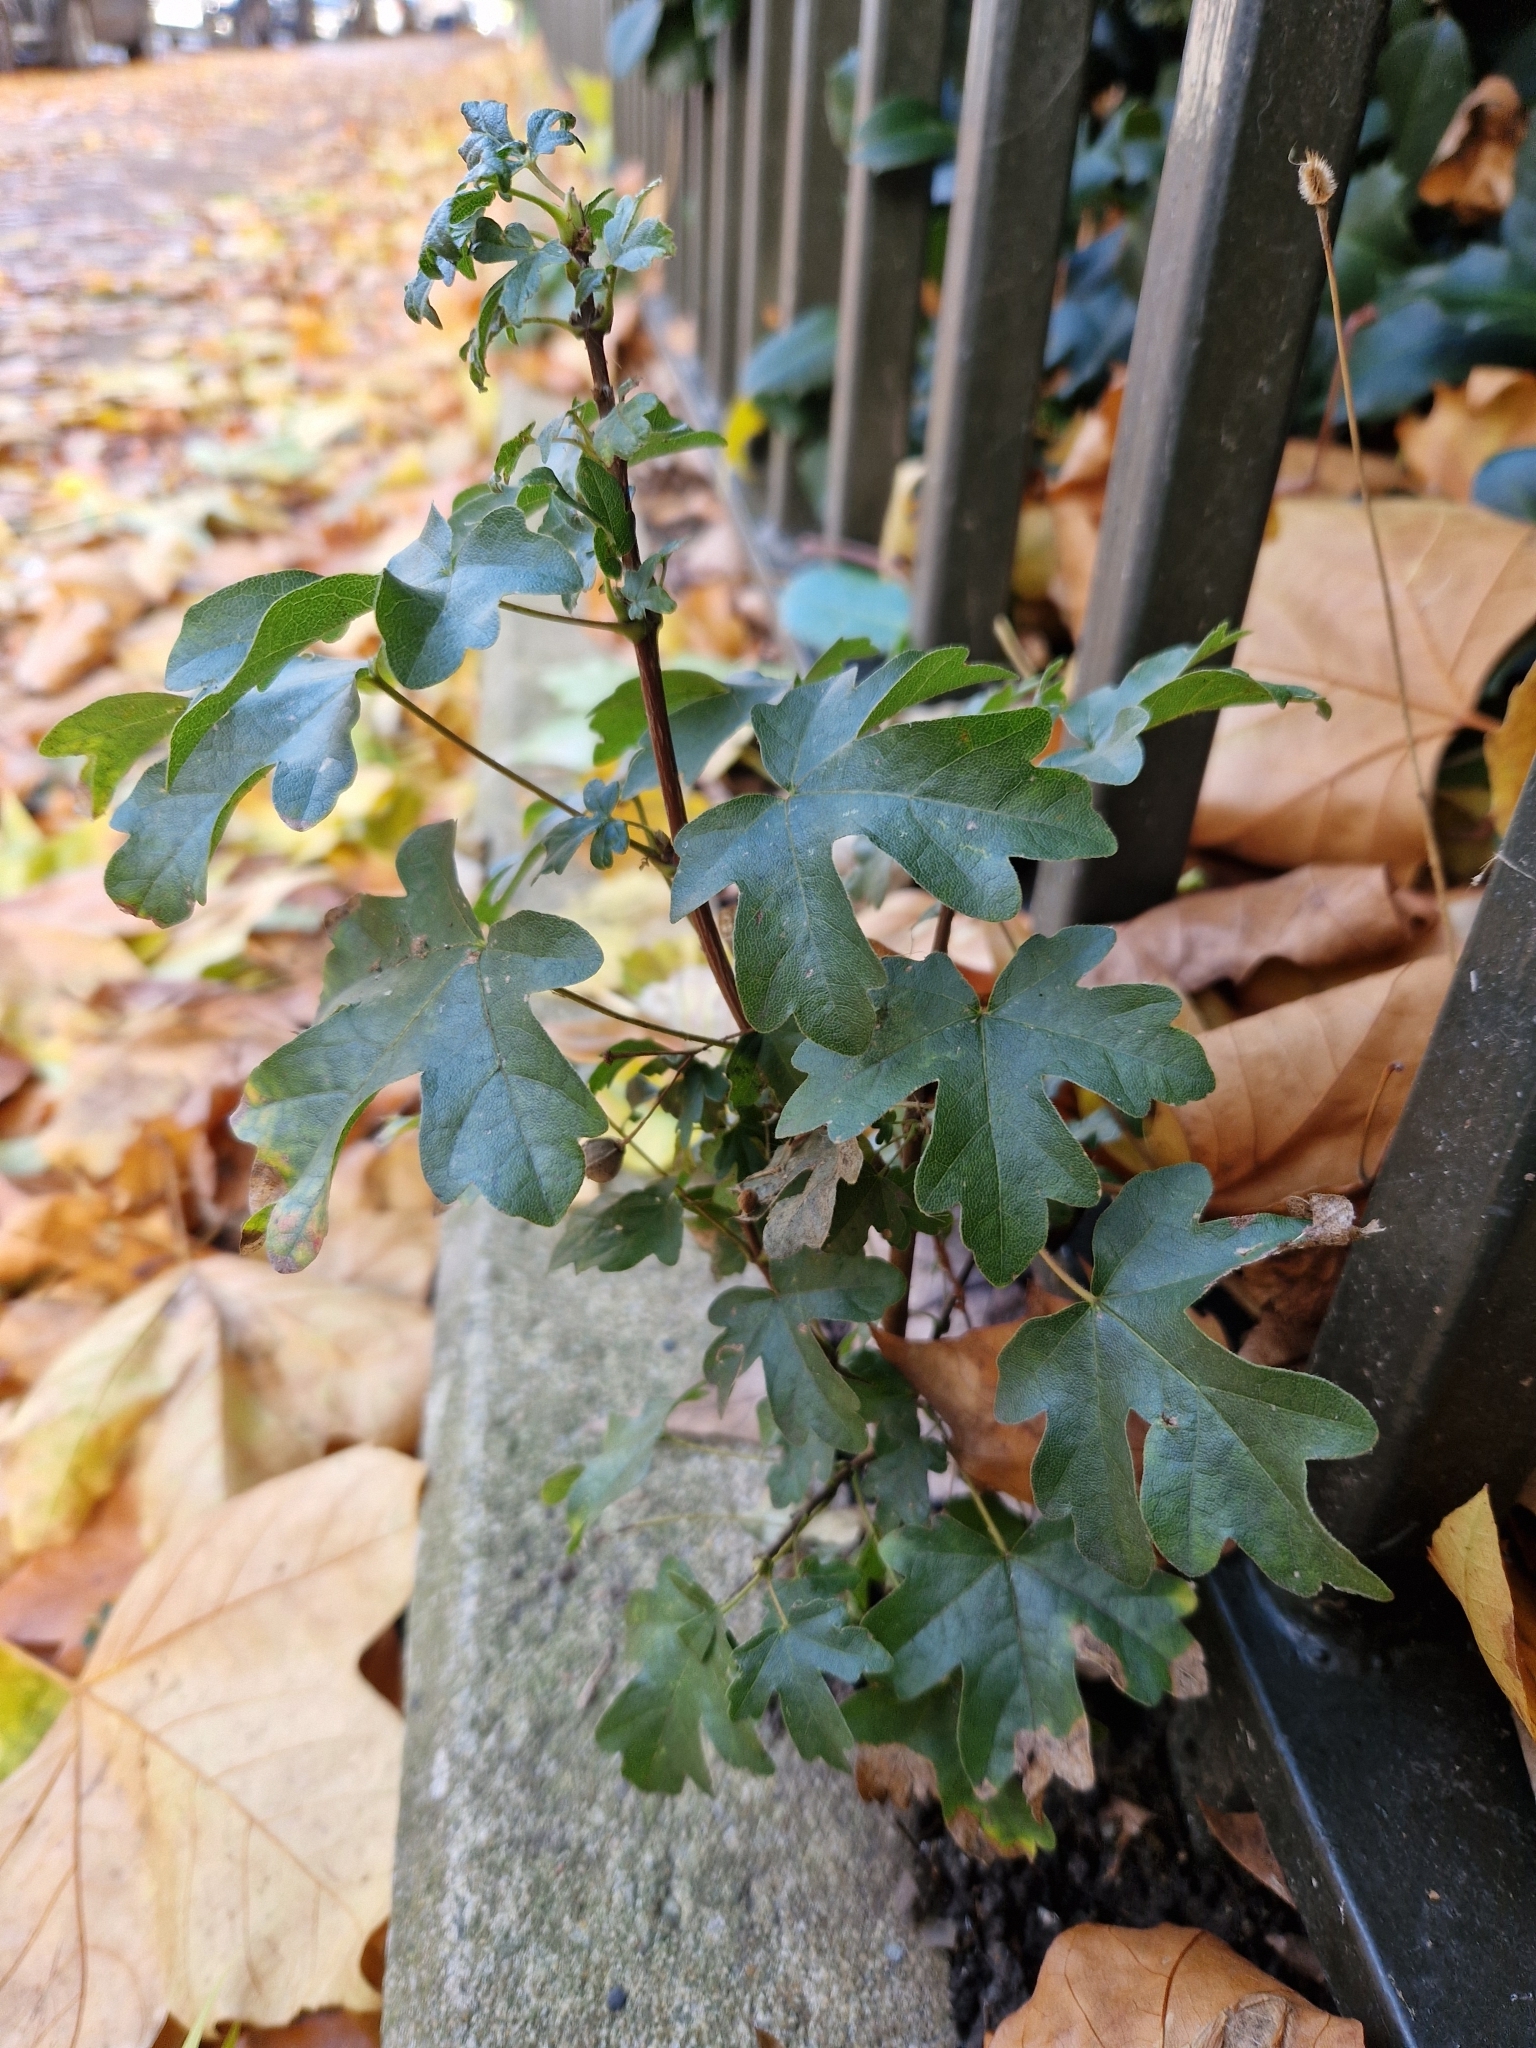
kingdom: Plantae
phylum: Tracheophyta
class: Magnoliopsida
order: Sapindales
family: Sapindaceae
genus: Acer
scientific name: Acer campestre
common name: Field maple
